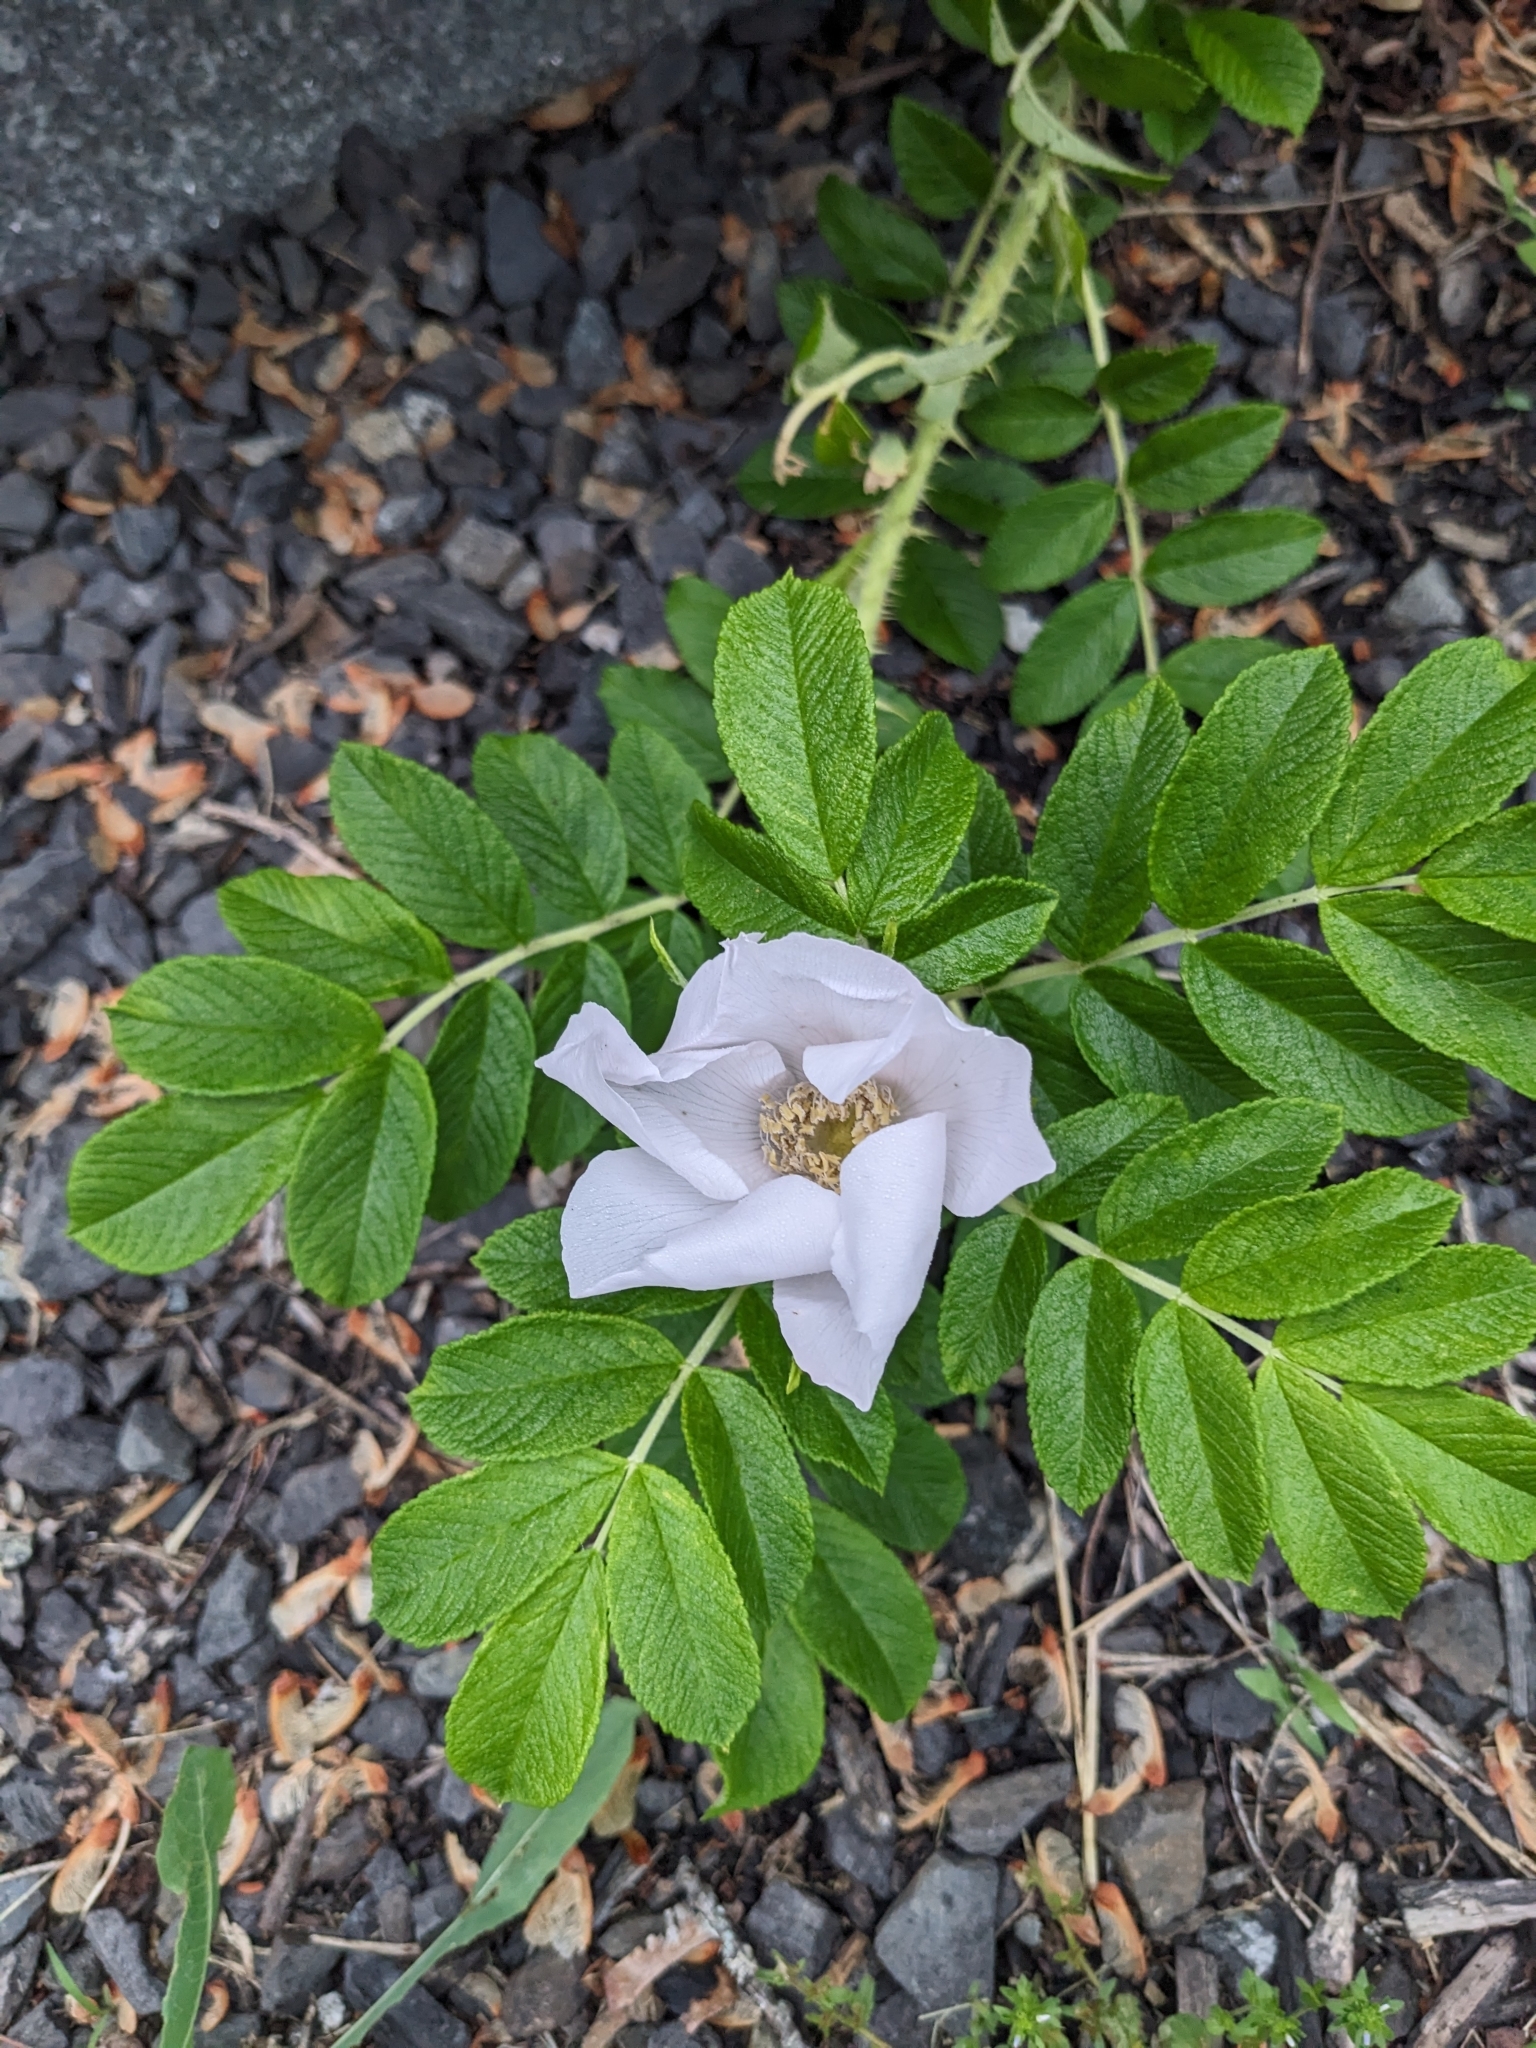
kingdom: Plantae
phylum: Tracheophyta
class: Magnoliopsida
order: Rosales
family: Rosaceae
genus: Rosa
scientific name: Rosa rugosa
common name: Japanese rose
